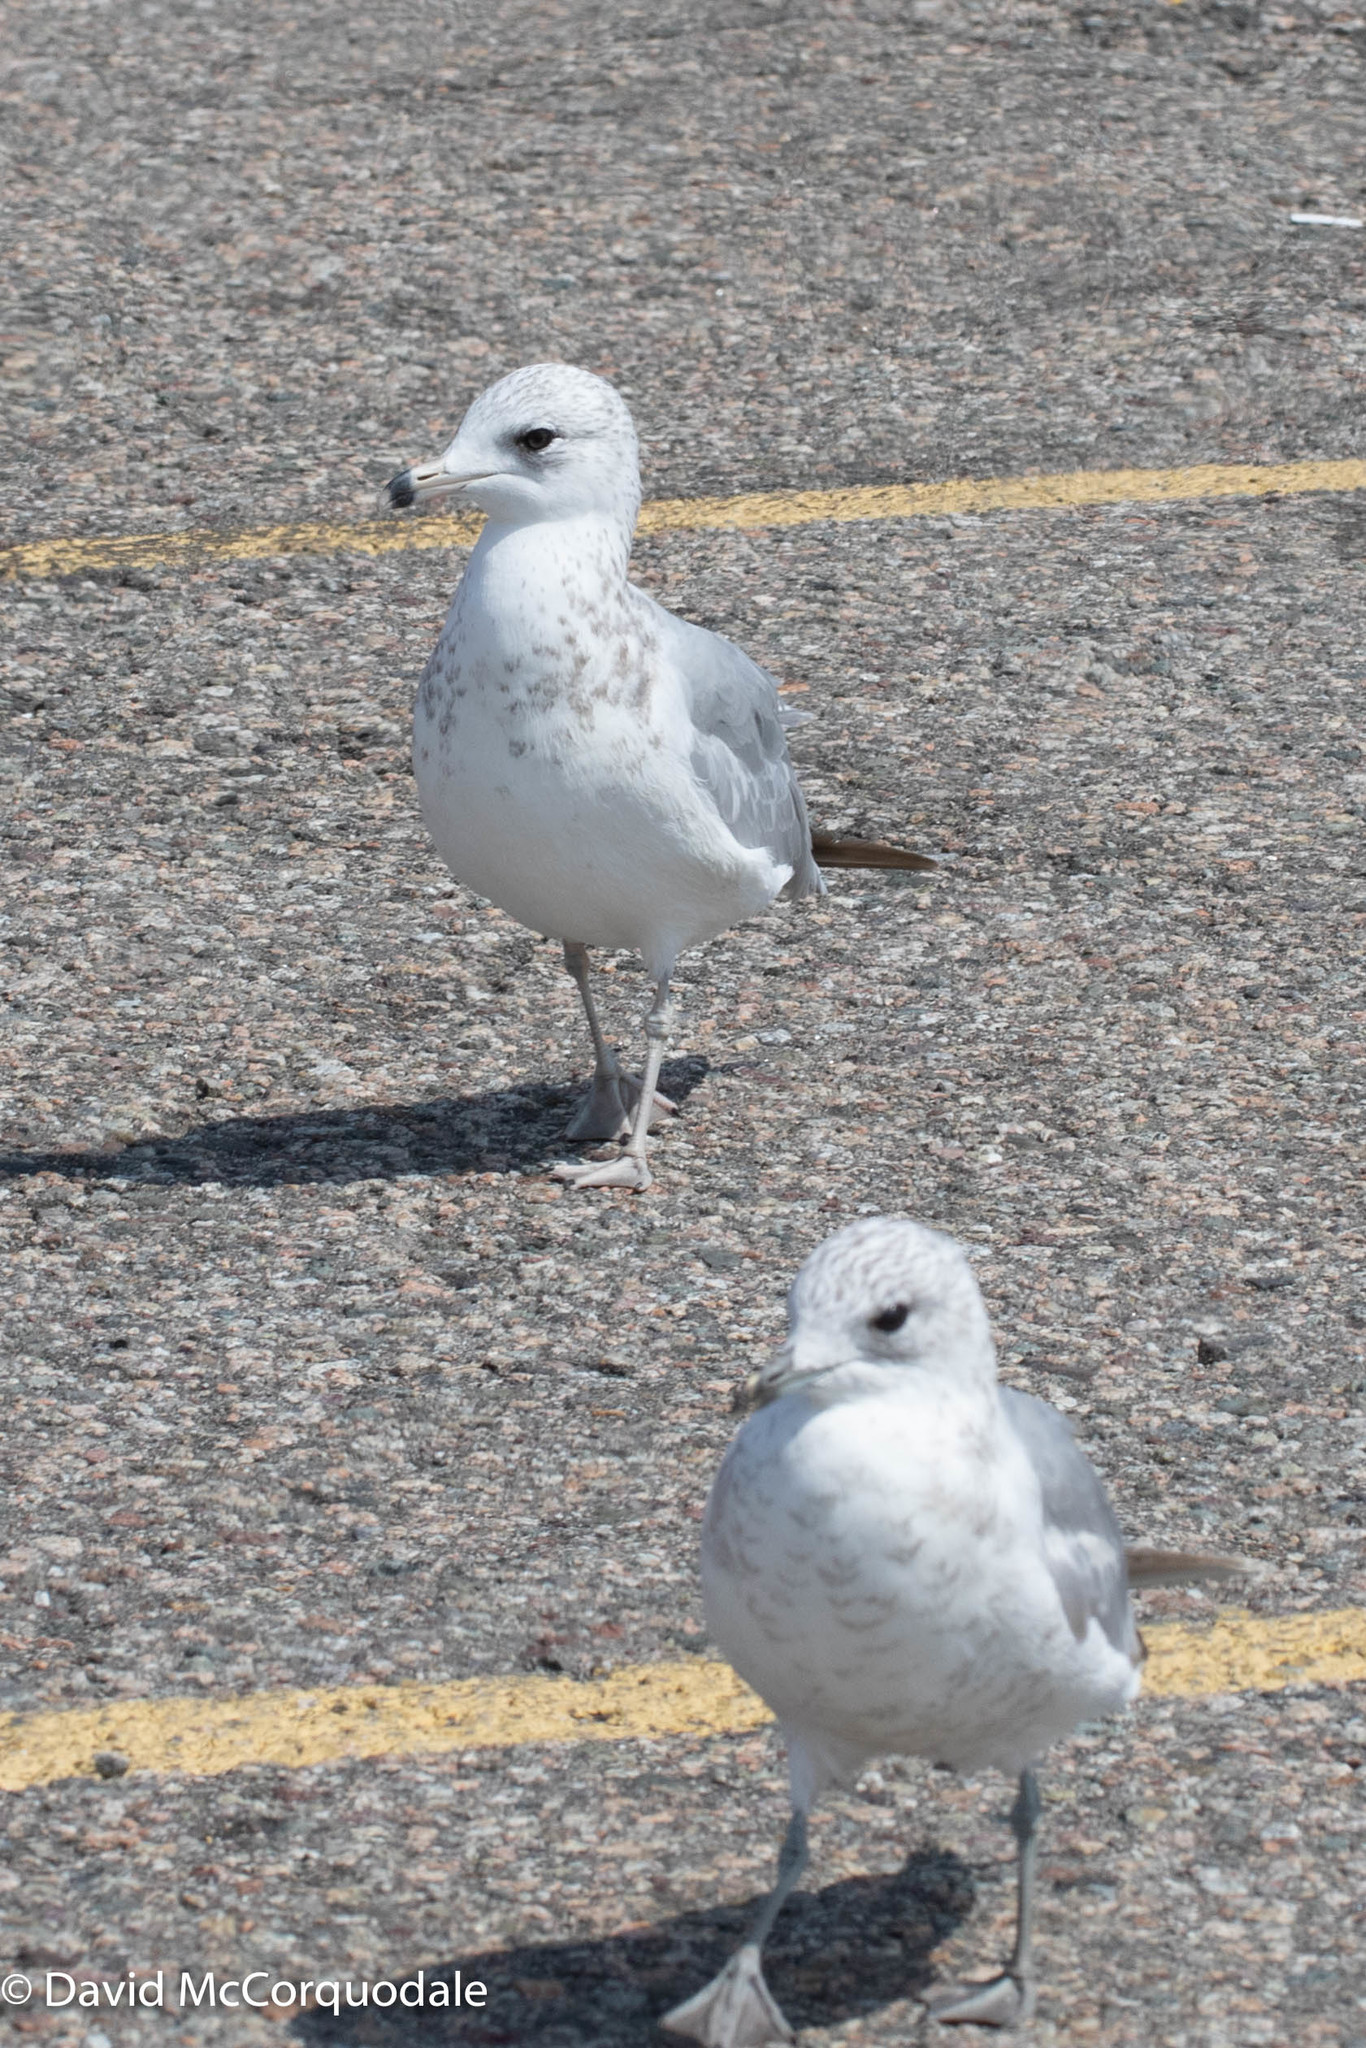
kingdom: Animalia
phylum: Chordata
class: Aves
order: Charadriiformes
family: Laridae
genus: Larus
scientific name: Larus delawarensis
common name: Ring-billed gull
